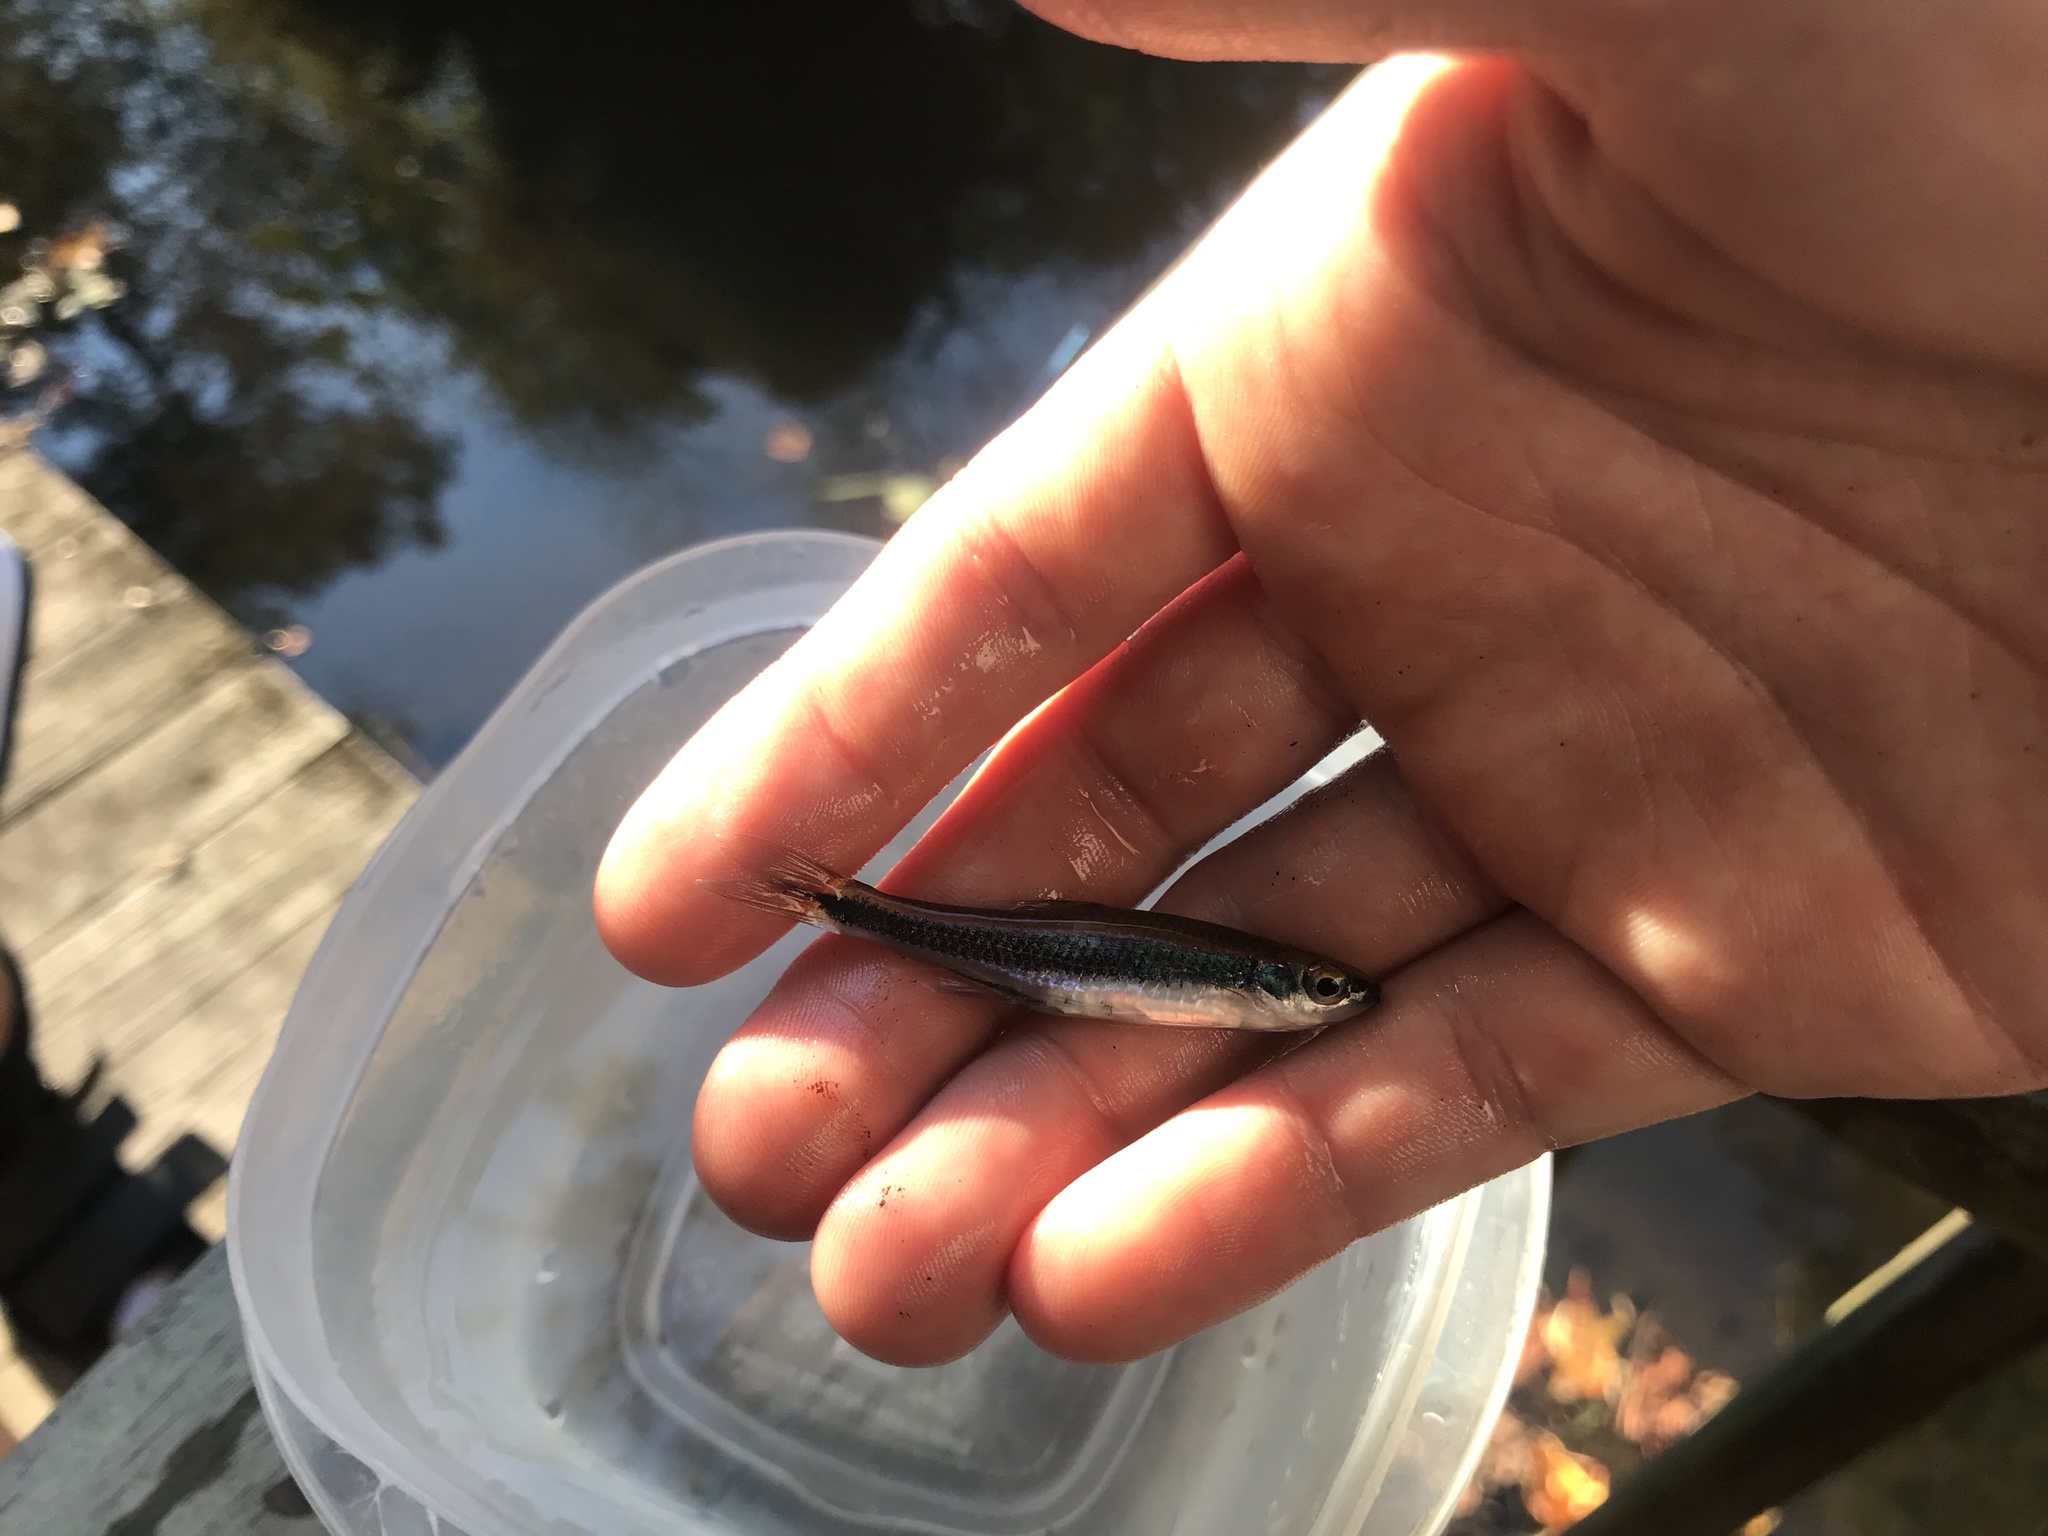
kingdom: Animalia
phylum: Chordata
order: Cypriniformes
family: Cyprinidae
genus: Pteronotropis
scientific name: Pteronotropis
